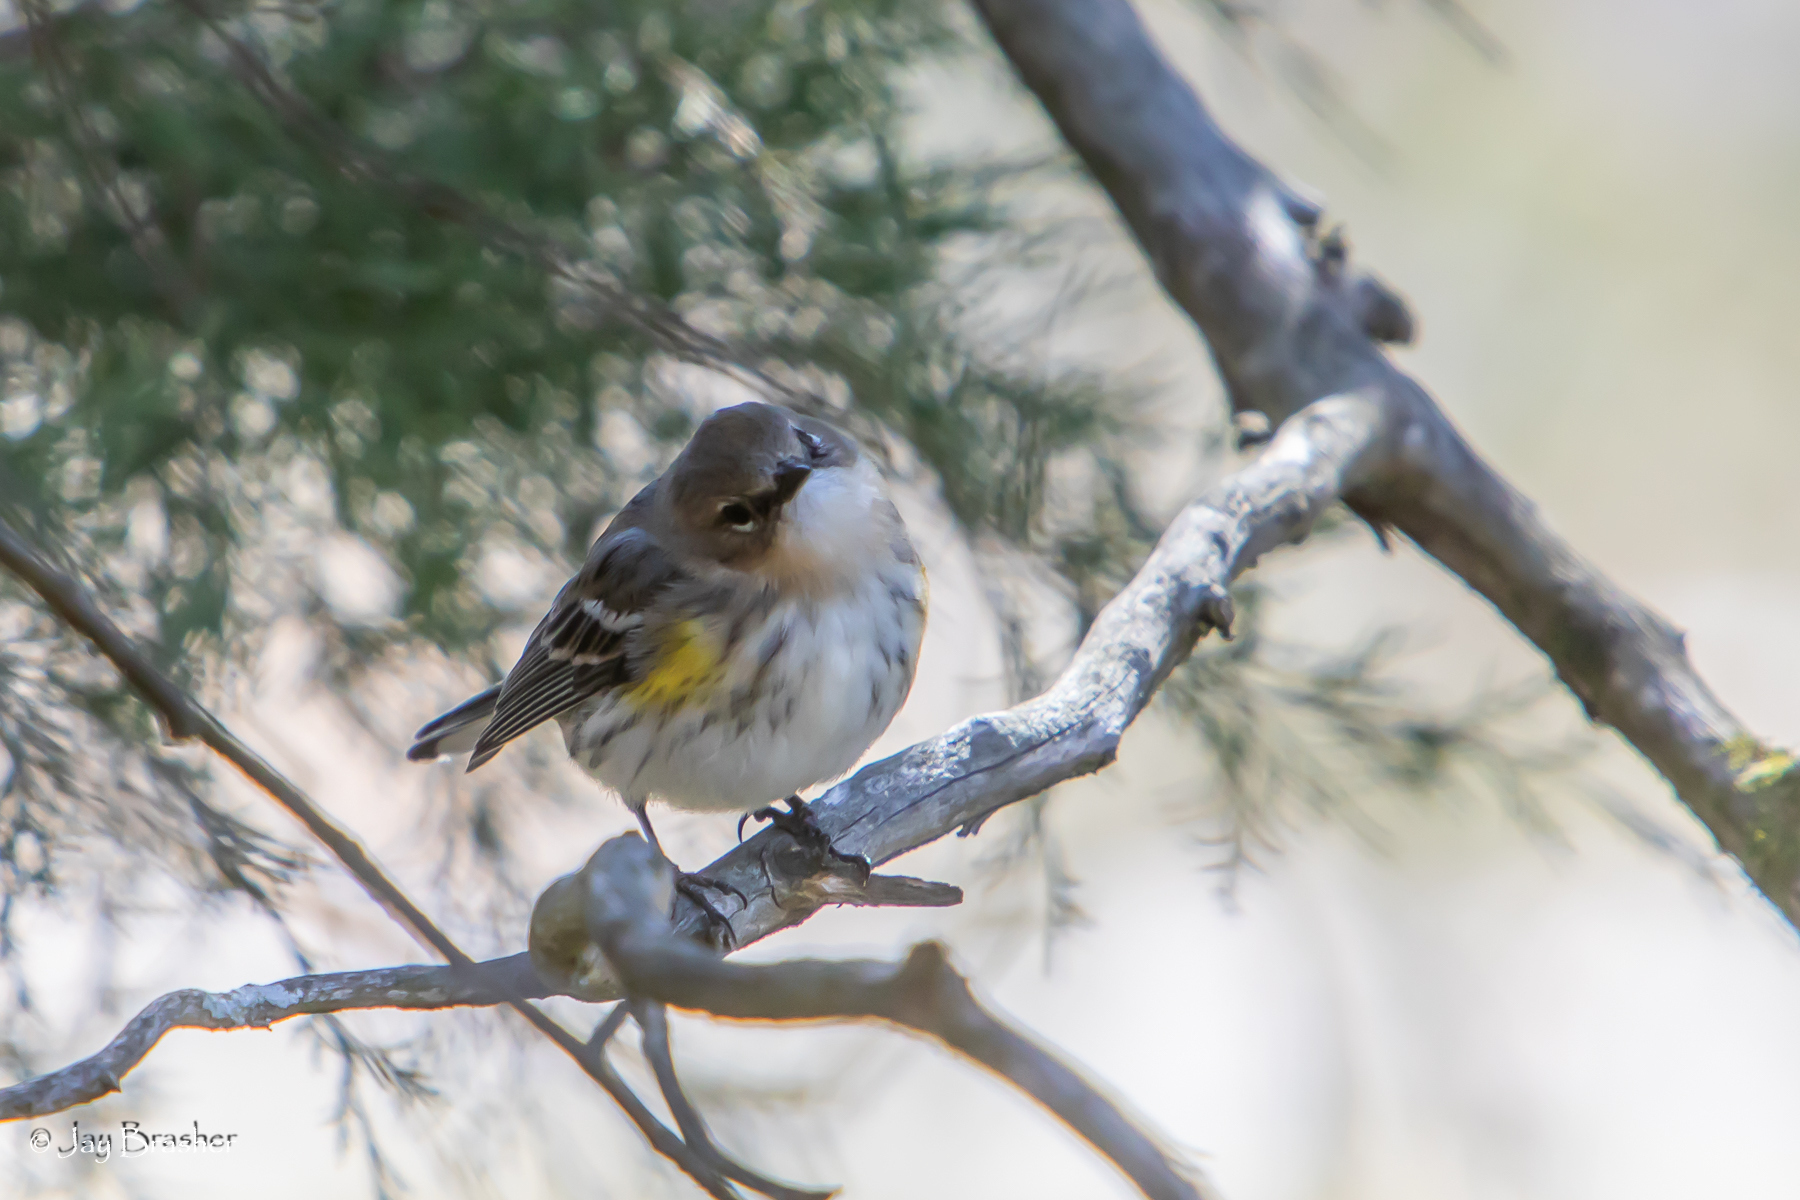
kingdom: Animalia
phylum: Chordata
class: Aves
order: Passeriformes
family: Parulidae
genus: Setophaga
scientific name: Setophaga coronata
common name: Myrtle warbler
